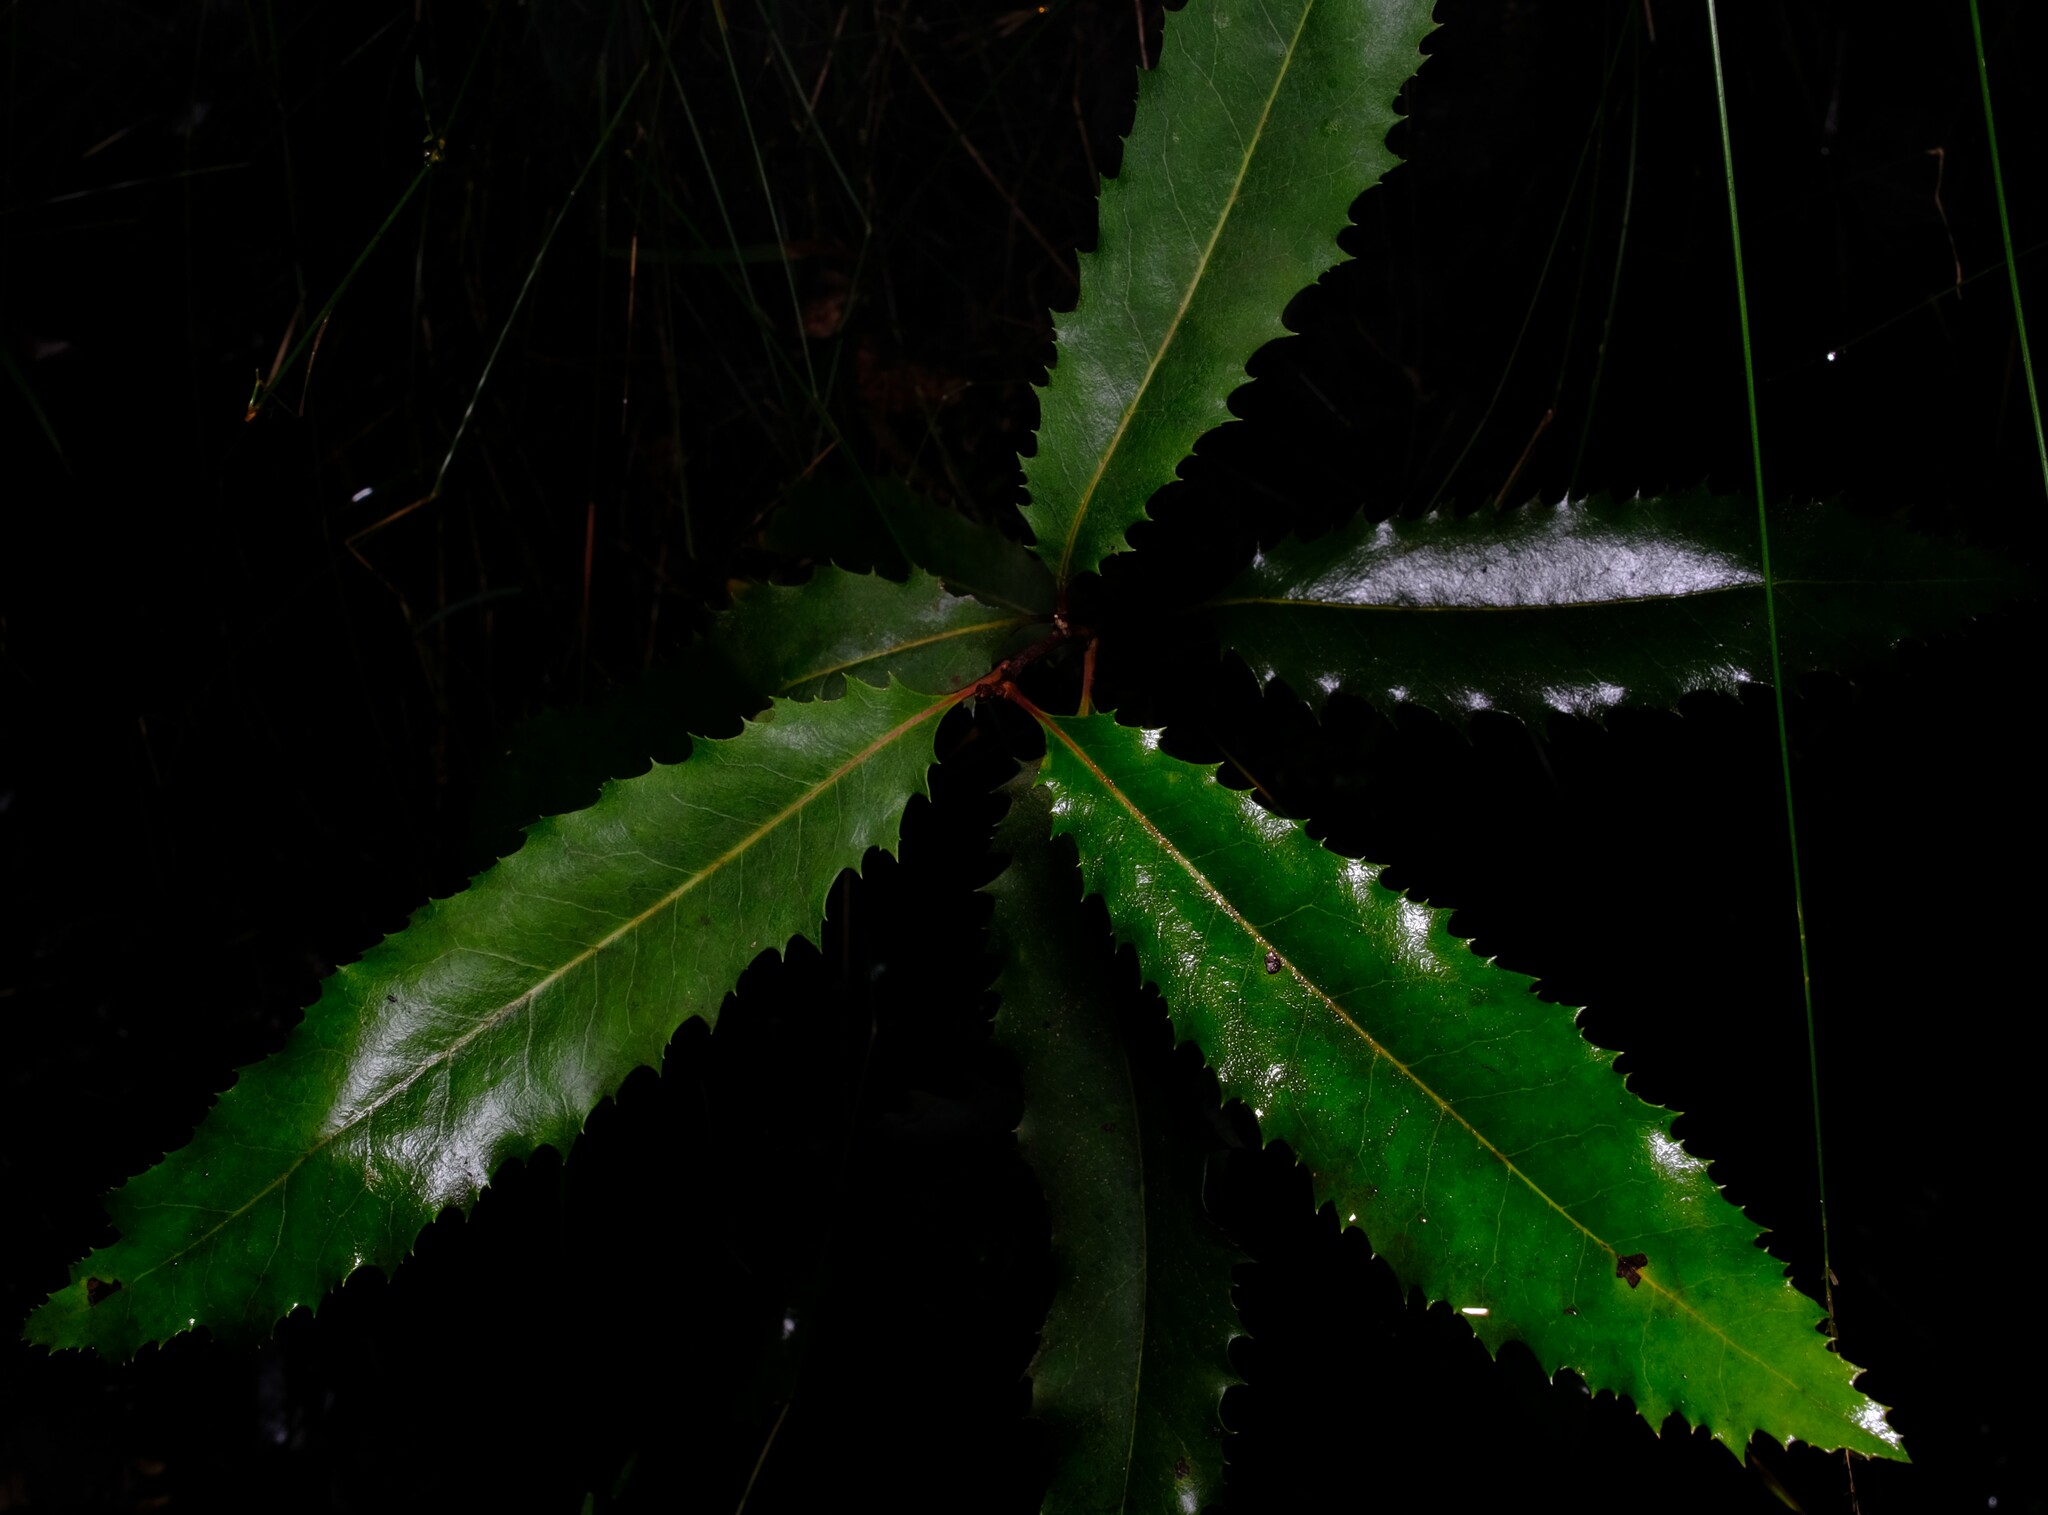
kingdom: Plantae
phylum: Tracheophyta
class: Magnoliopsida
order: Proteales
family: Proteaceae
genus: Lomatia
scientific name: Lomatia fraseri
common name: Forest lomatia
